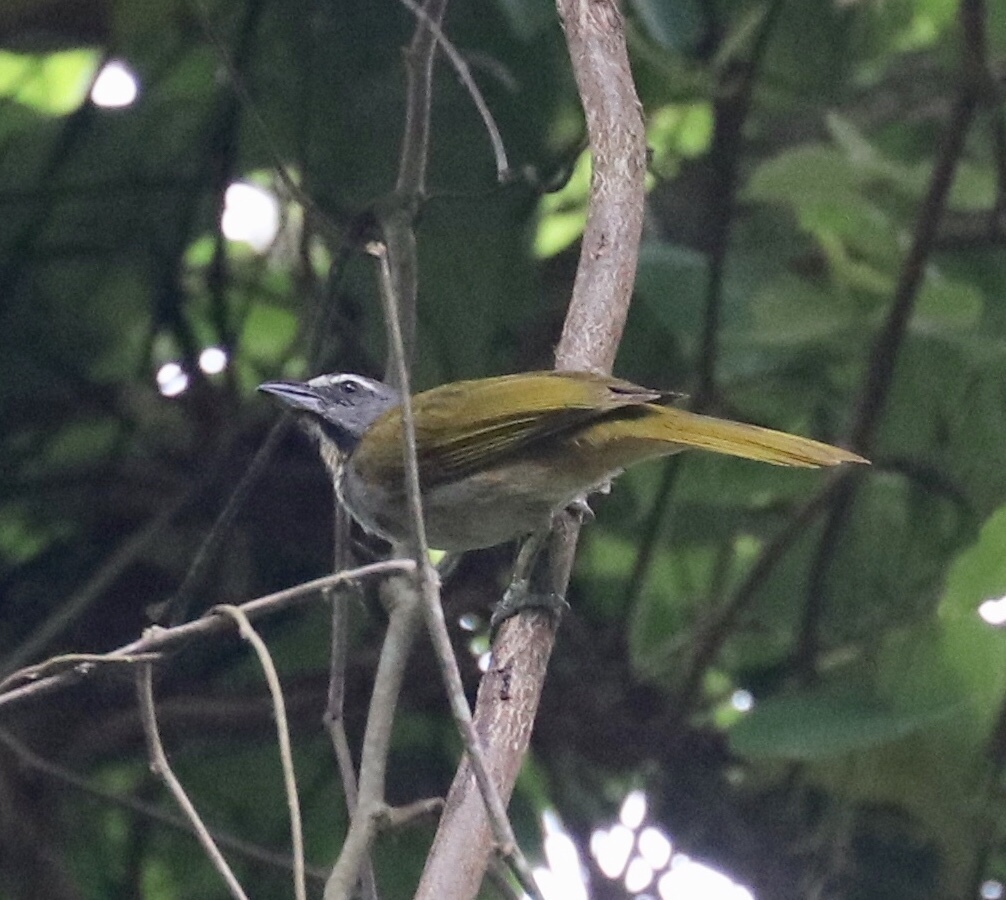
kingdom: Animalia
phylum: Chordata
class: Aves
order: Passeriformes
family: Thraupidae
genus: Saltator
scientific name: Saltator maximus
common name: Buff-throated saltator
